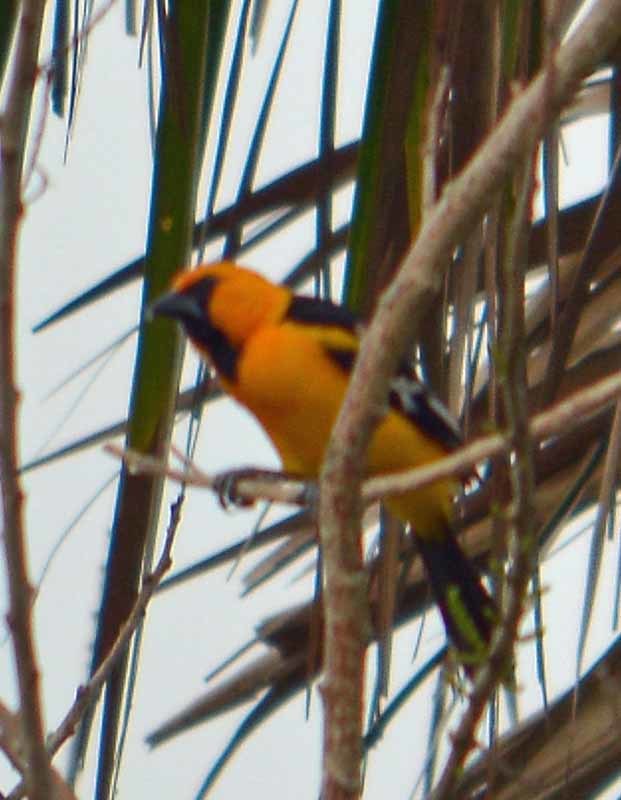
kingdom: Animalia
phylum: Chordata
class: Aves
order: Passeriformes
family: Icteridae
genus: Icterus
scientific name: Icterus gularis
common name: Altamira oriole
